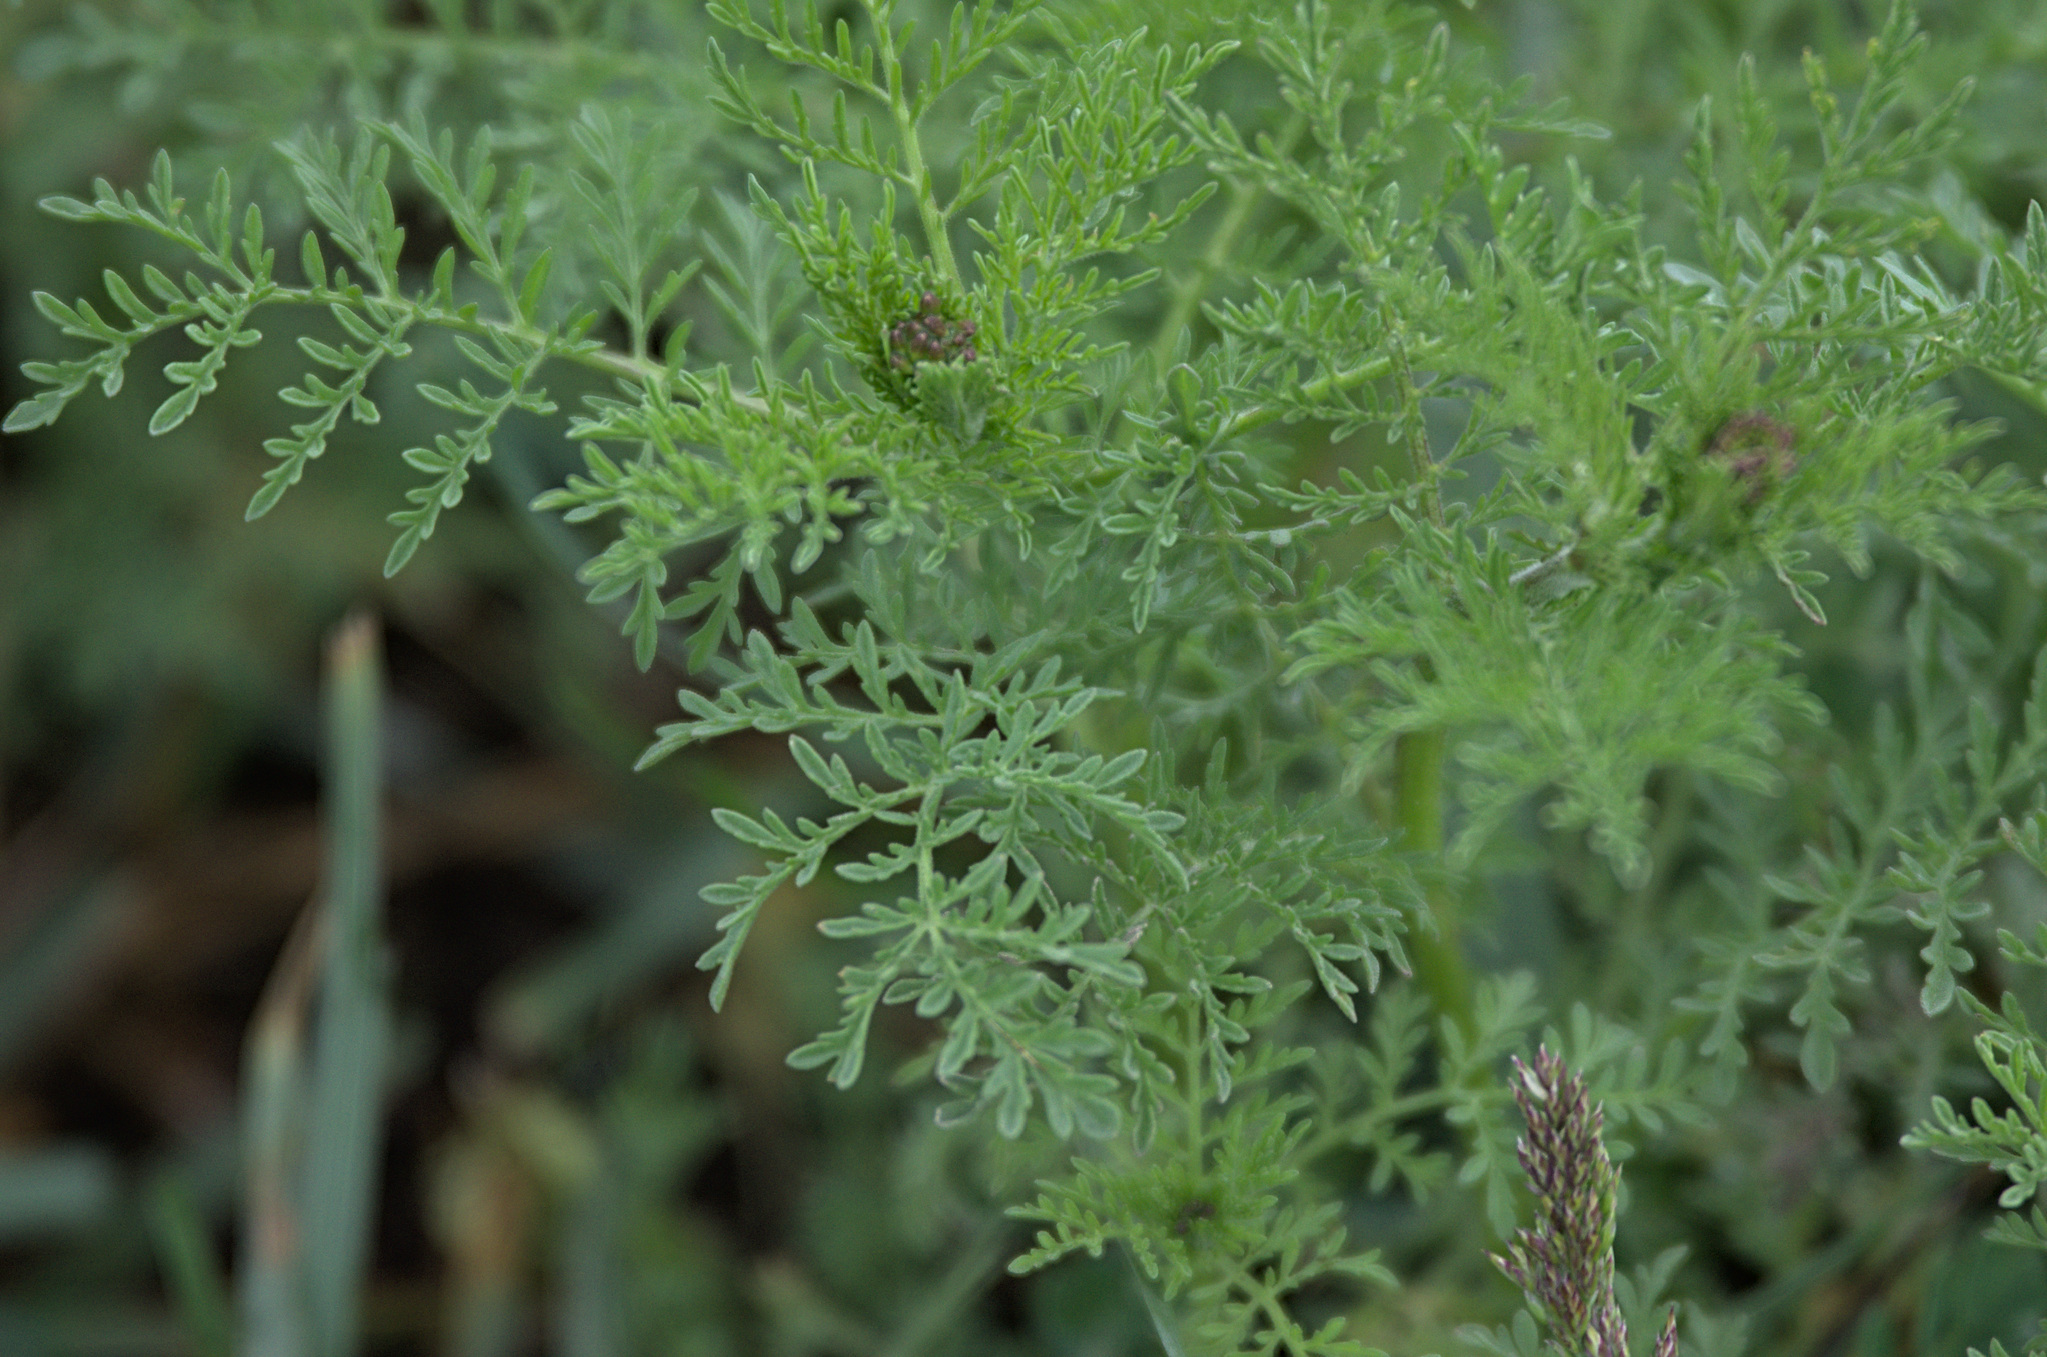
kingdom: Plantae
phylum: Tracheophyta
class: Magnoliopsida
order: Brassicales
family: Brassicaceae
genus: Descurainia
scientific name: Descurainia sophia
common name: Flixweed
